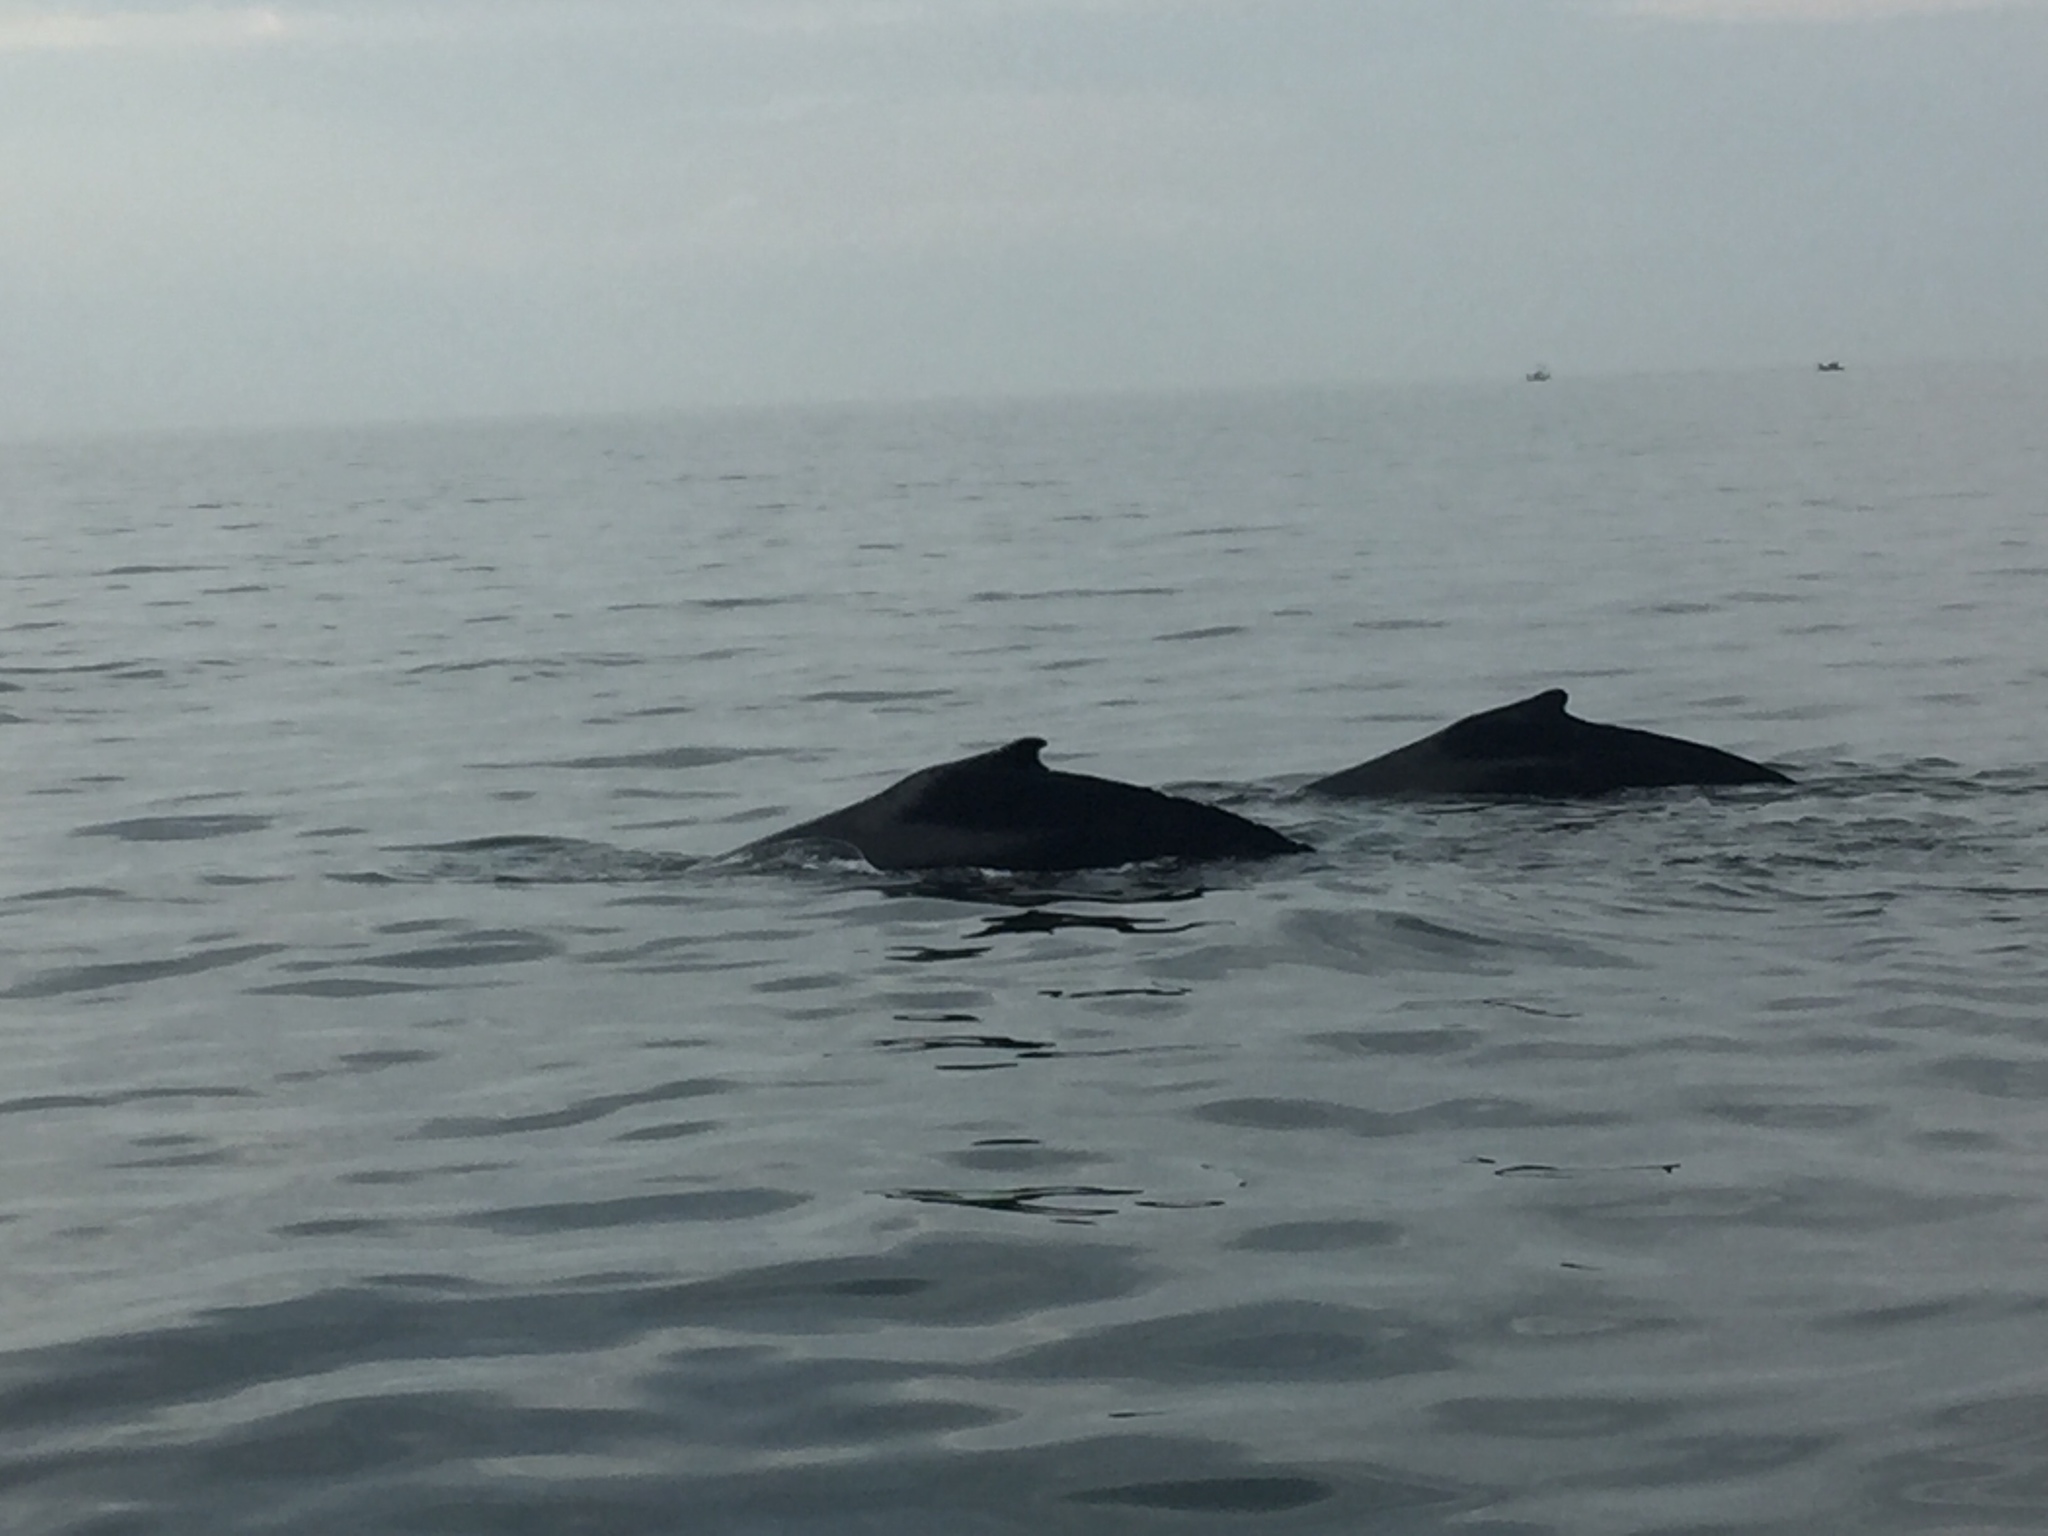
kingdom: Animalia
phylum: Chordata
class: Mammalia
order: Cetacea
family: Balaenopteridae
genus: Megaptera
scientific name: Megaptera novaeangliae
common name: Humpback whale
